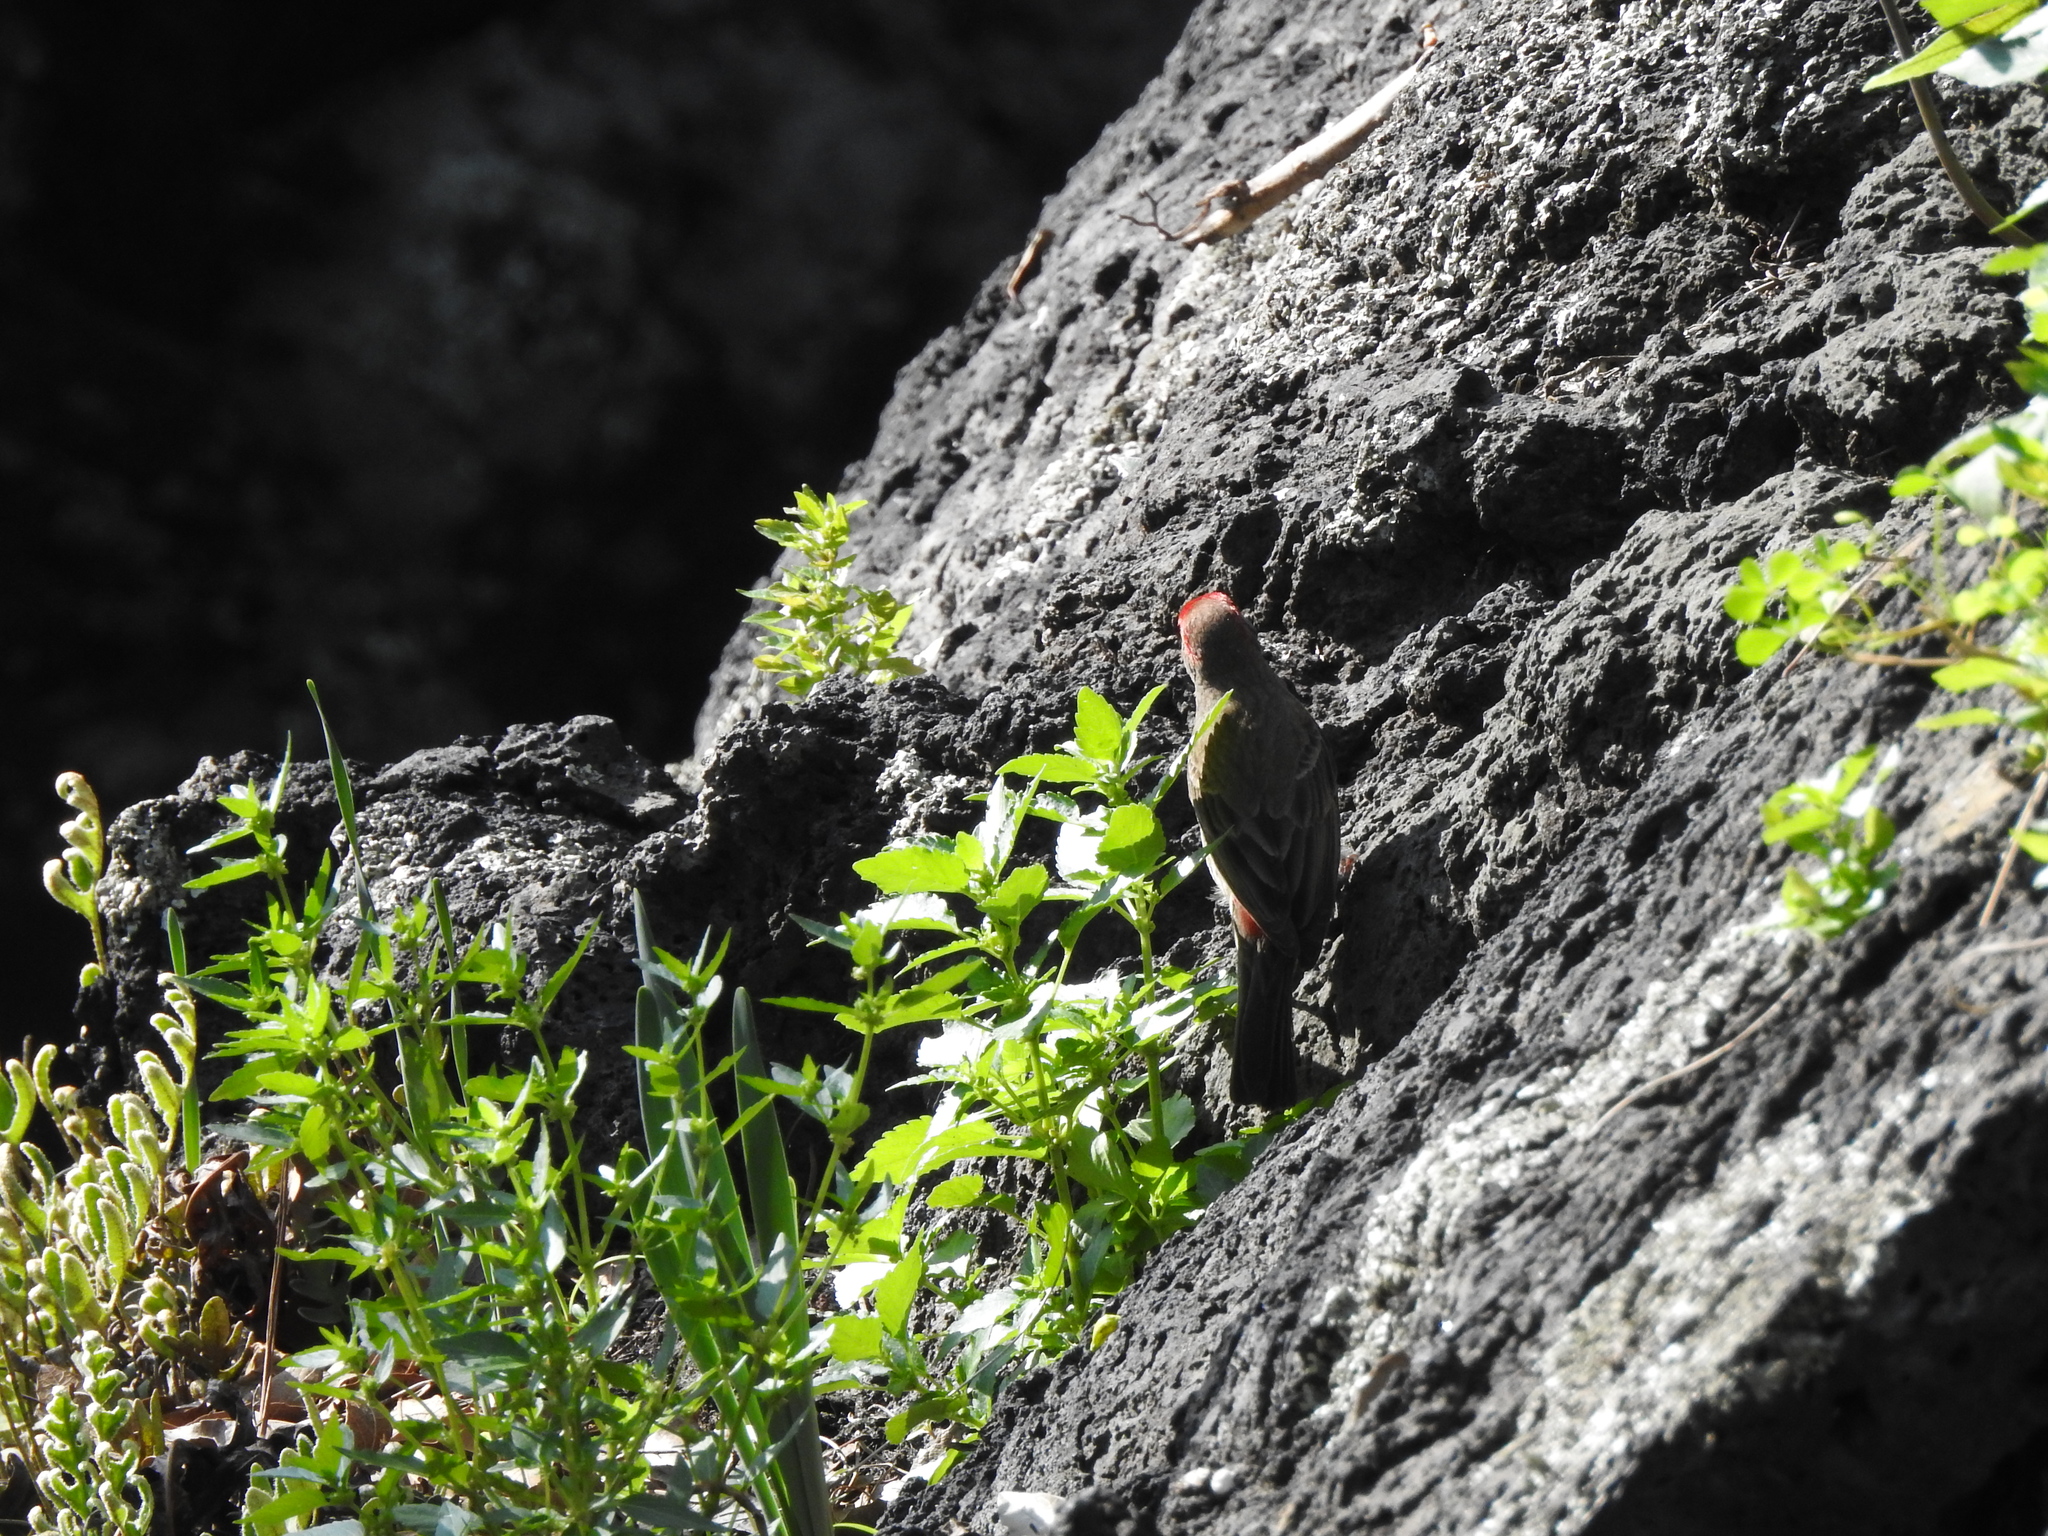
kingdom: Animalia
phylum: Chordata
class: Aves
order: Passeriformes
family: Fringillidae
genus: Haemorhous
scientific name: Haemorhous mexicanus
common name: House finch
